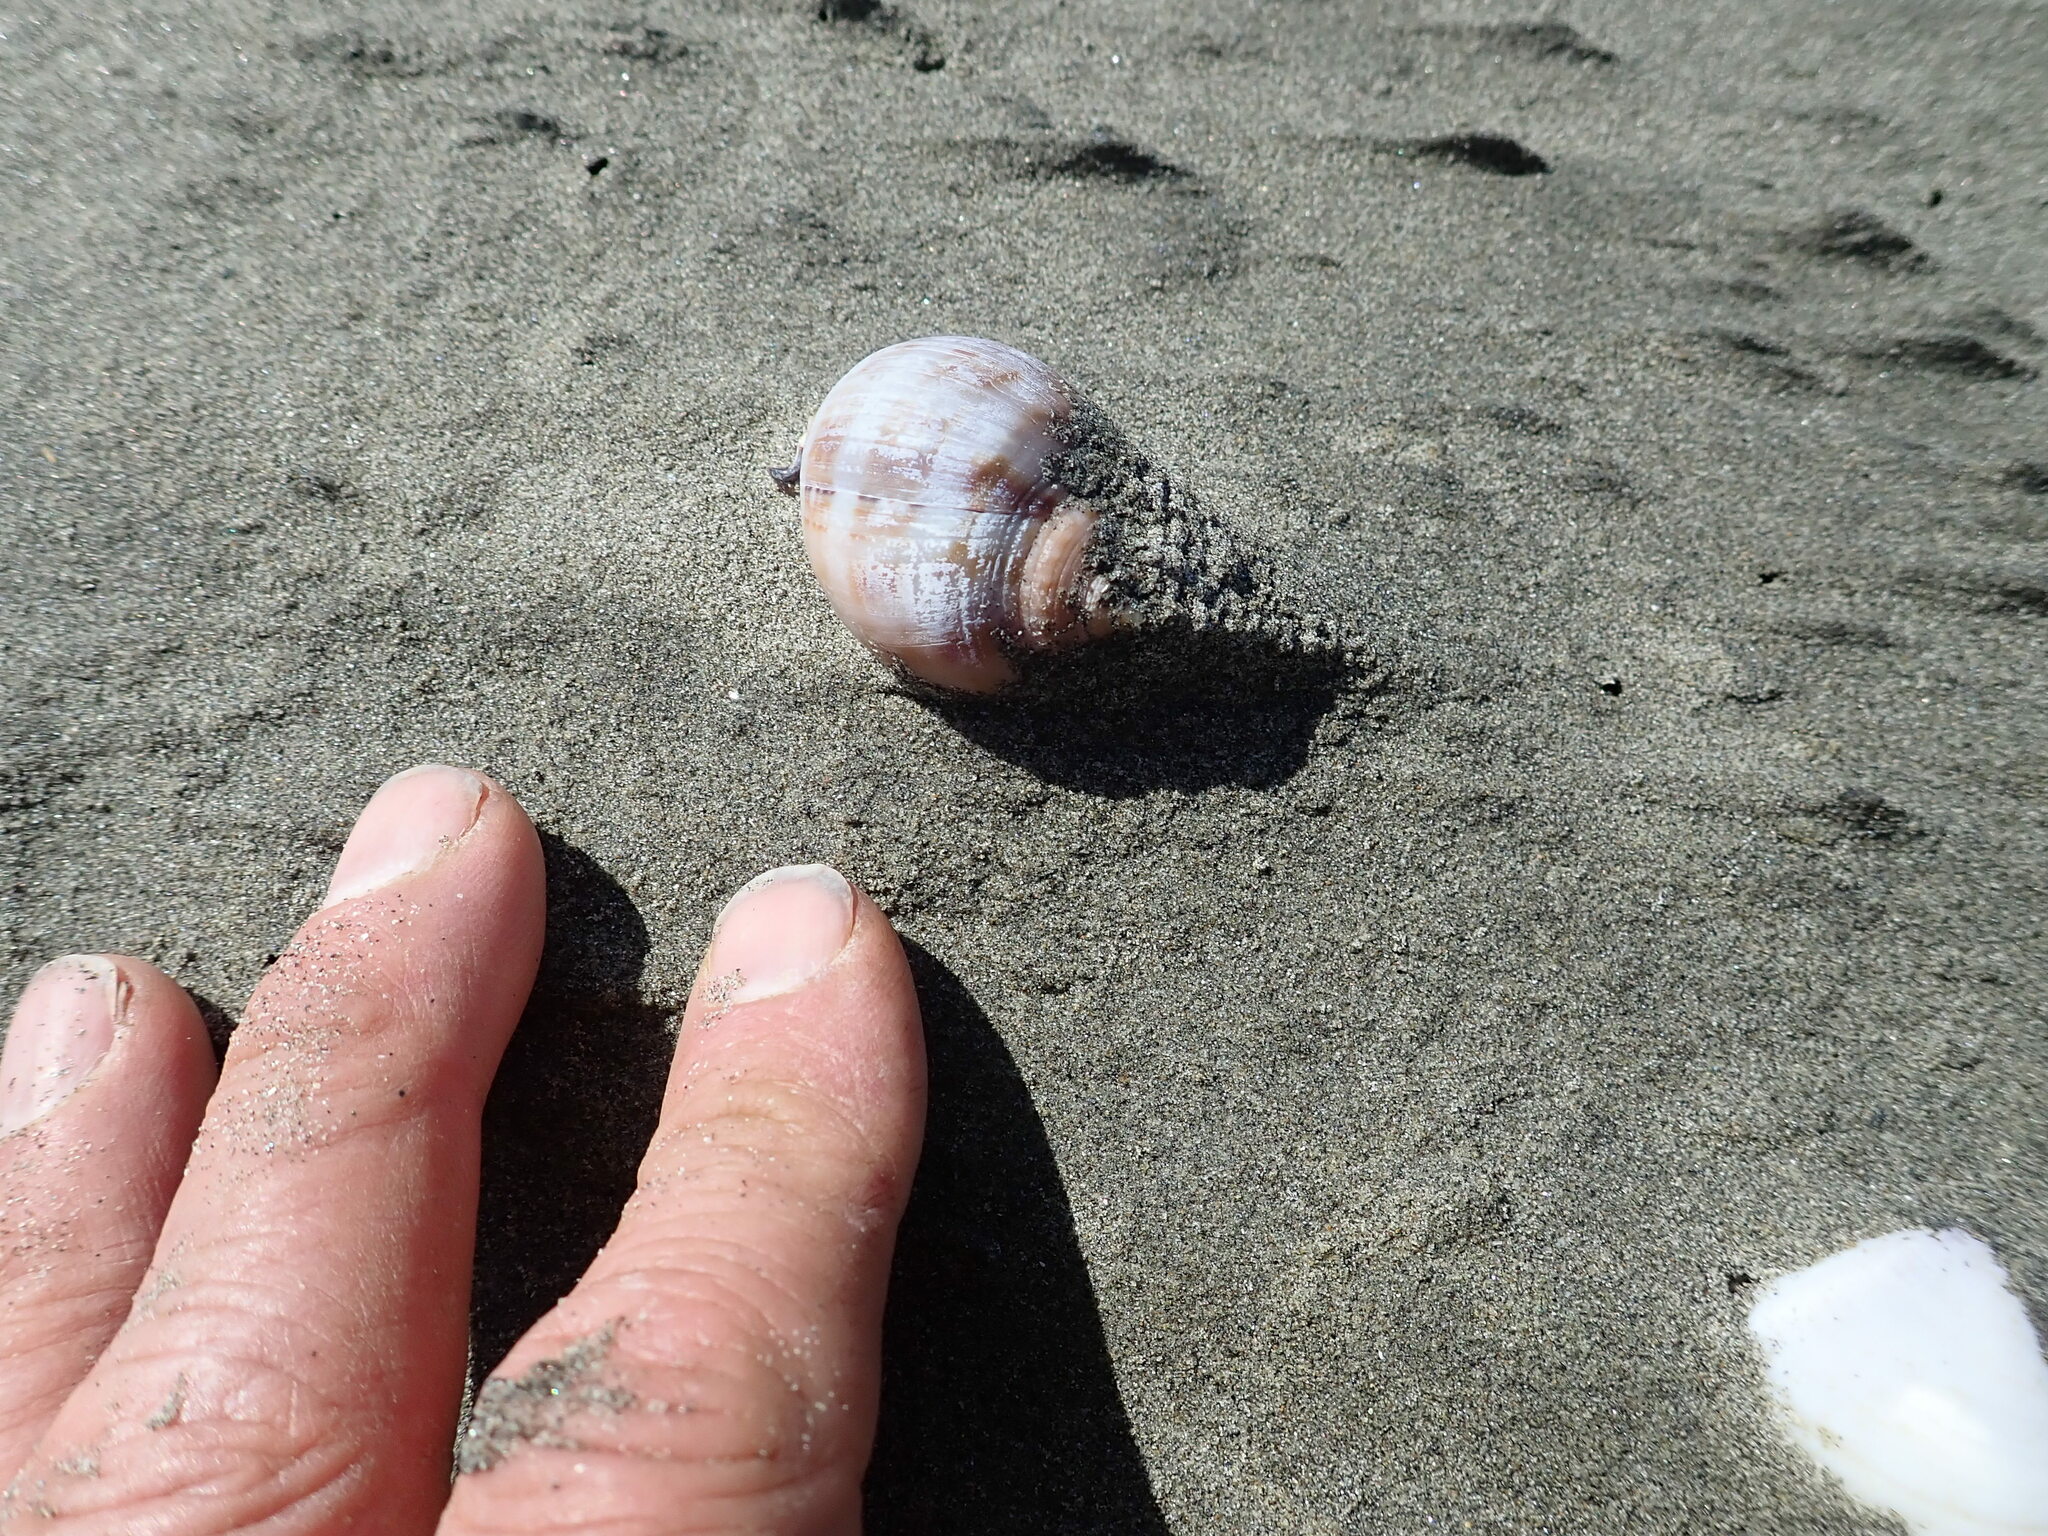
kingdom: Animalia
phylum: Mollusca
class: Gastropoda
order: Littorinimorpha
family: Cassidae
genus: Semicassis
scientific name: Semicassis pyrum
